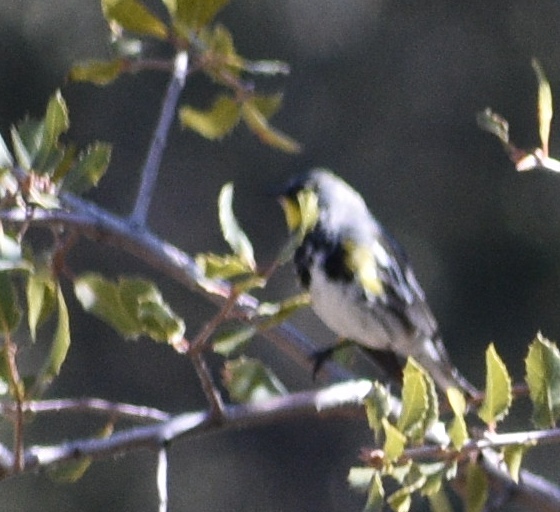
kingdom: Animalia
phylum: Chordata
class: Aves
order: Passeriformes
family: Parulidae
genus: Setophaga
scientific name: Setophaga coronata
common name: Myrtle warbler
